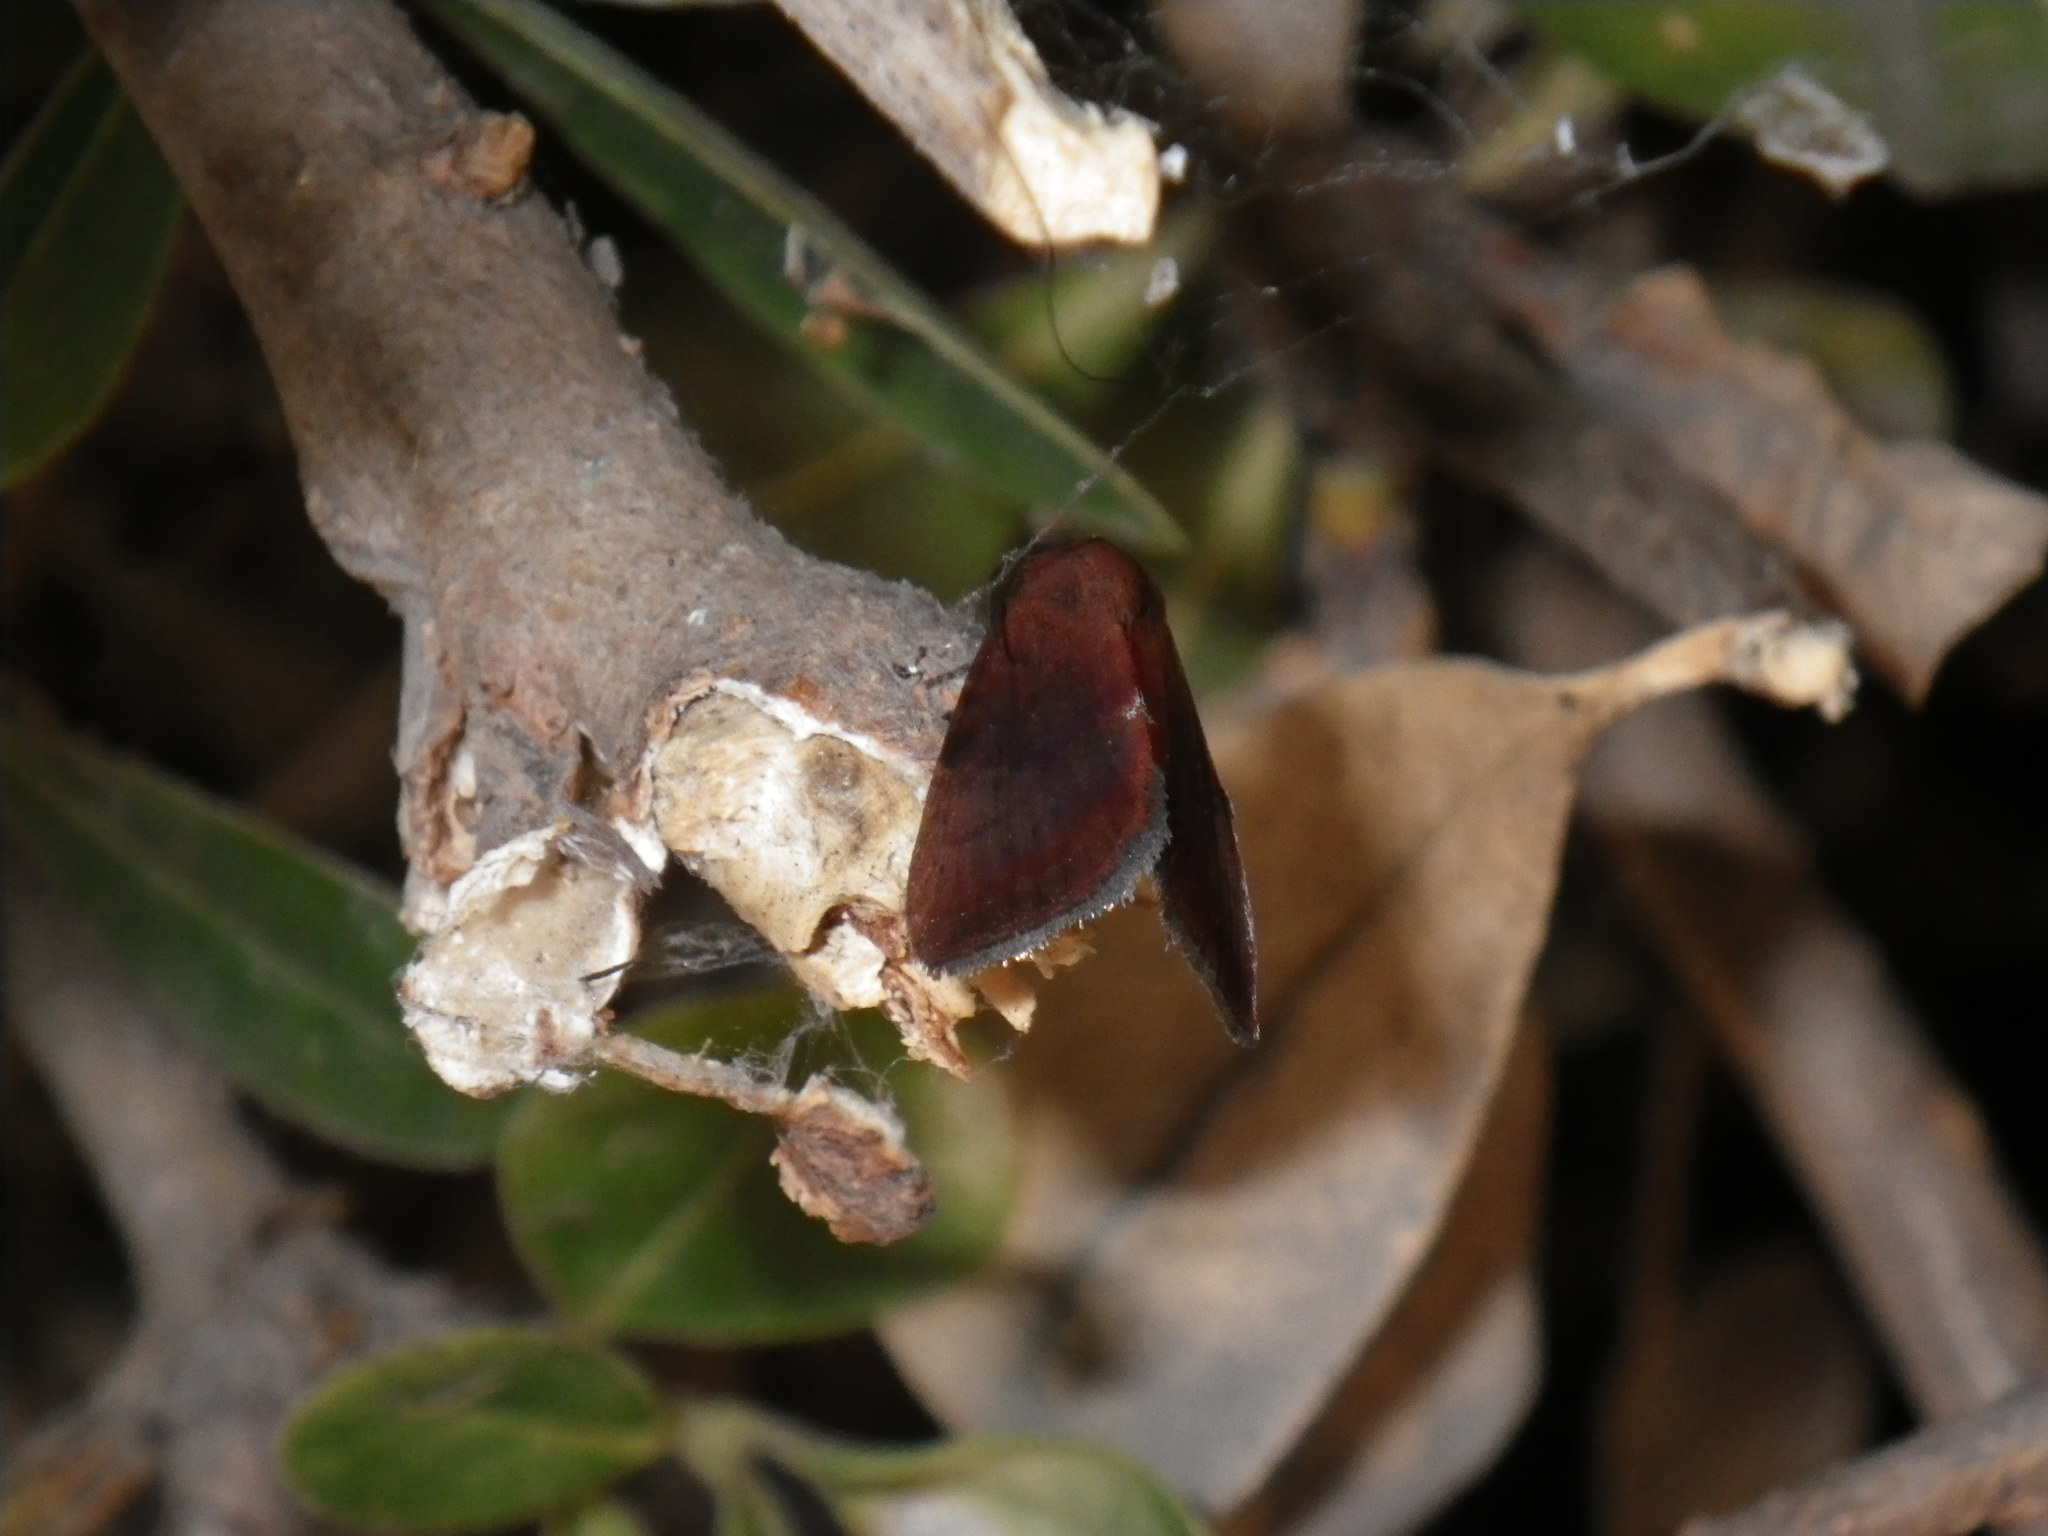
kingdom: Animalia
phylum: Arthropoda
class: Insecta
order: Lepidoptera
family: Noctuidae
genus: Galgula
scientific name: Galgula partita
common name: Wedgeling
